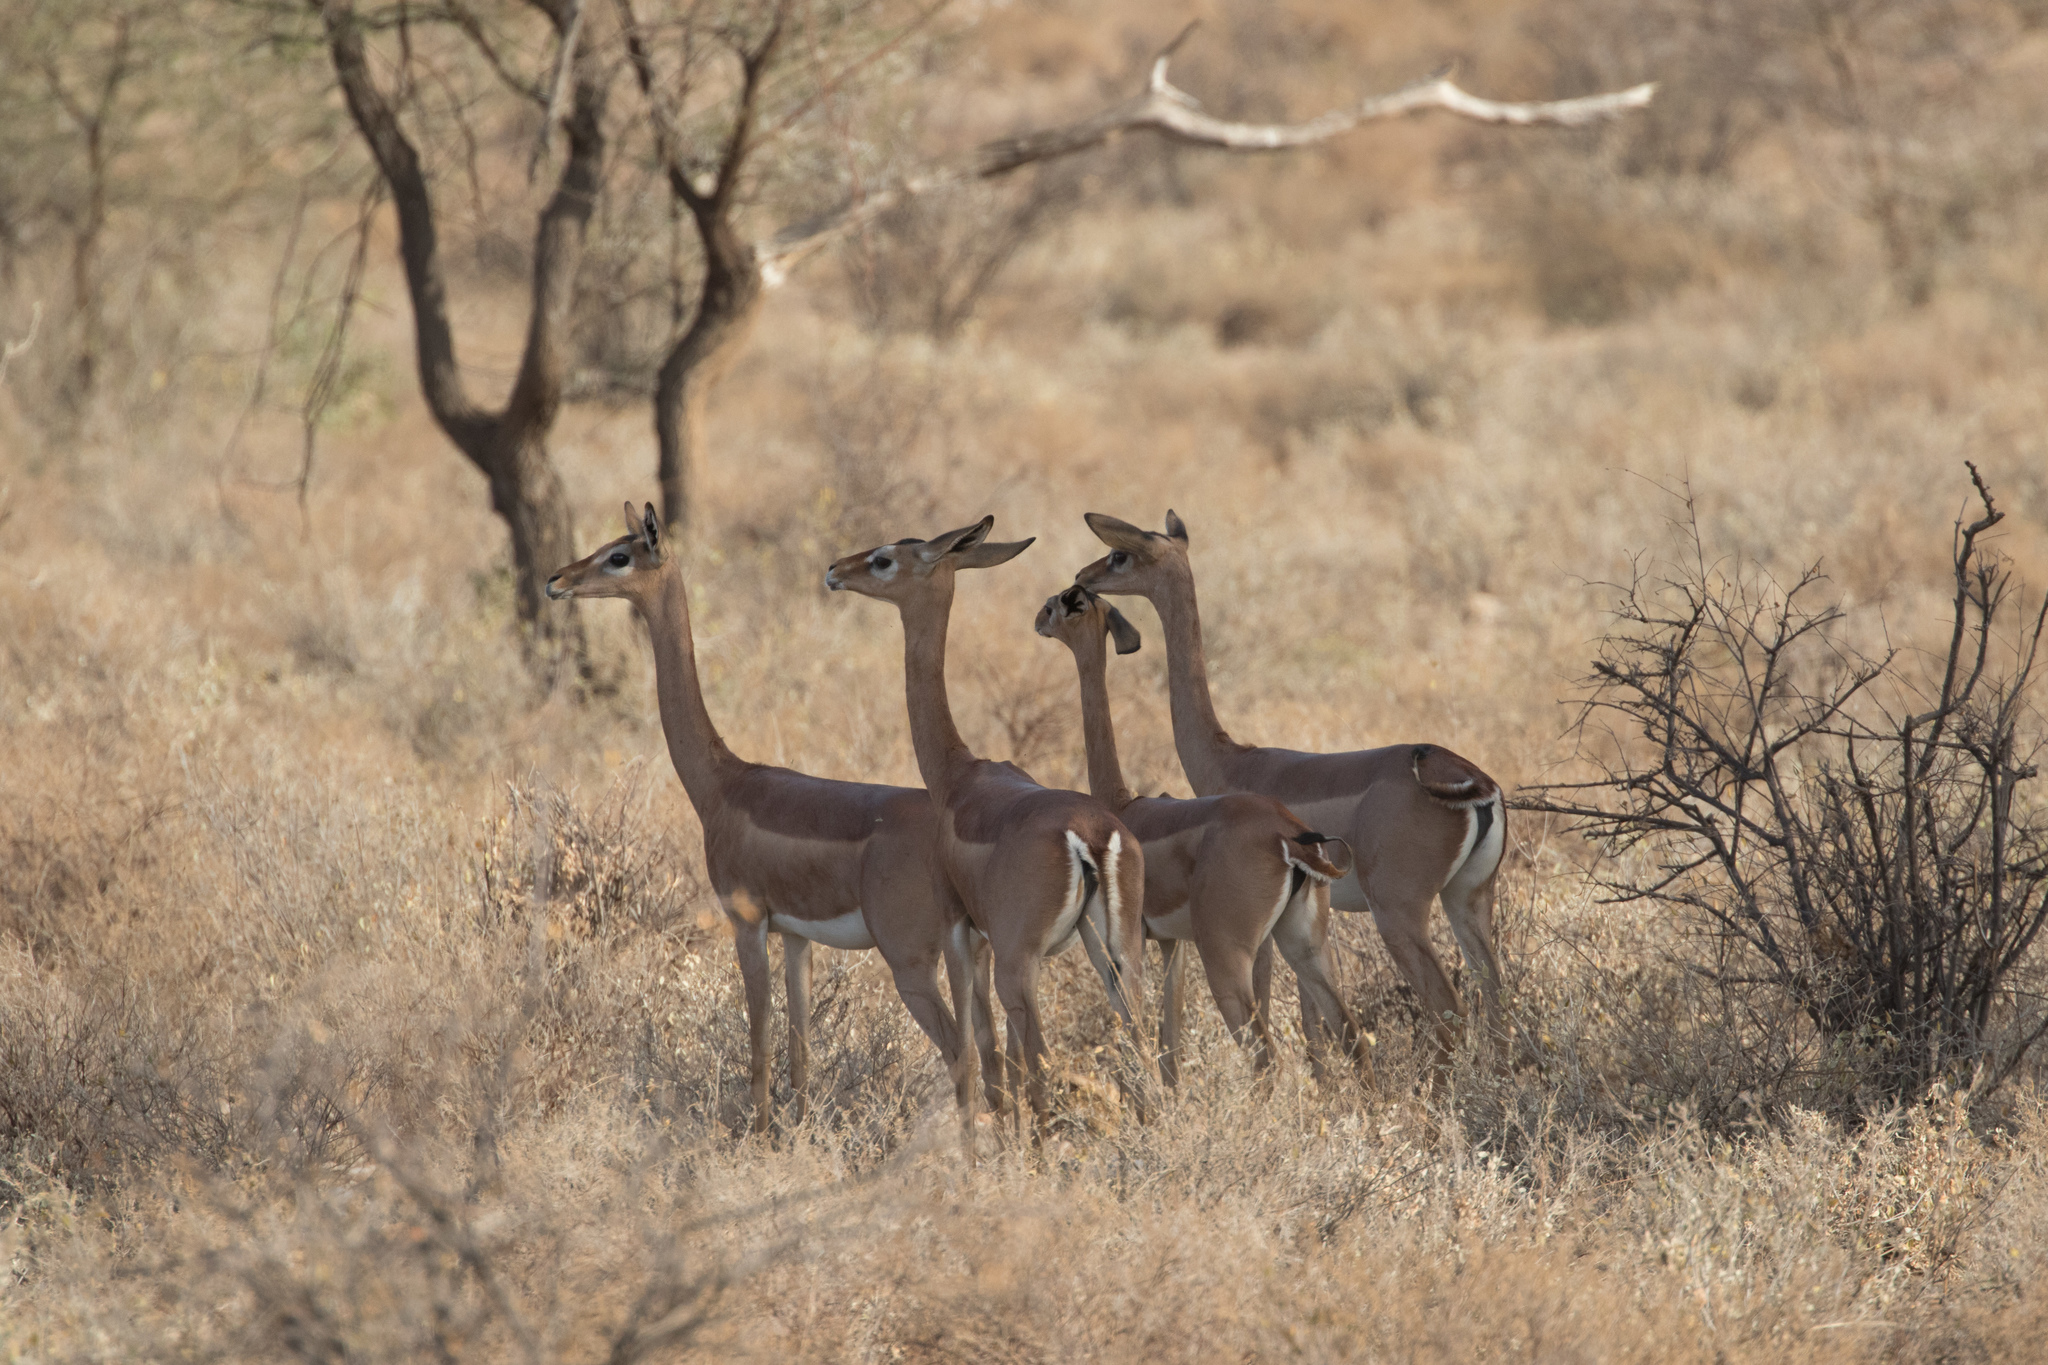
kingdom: Animalia
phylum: Chordata
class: Mammalia
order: Artiodactyla
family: Bovidae
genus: Litocranius
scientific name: Litocranius walleri
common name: Gerenuk
